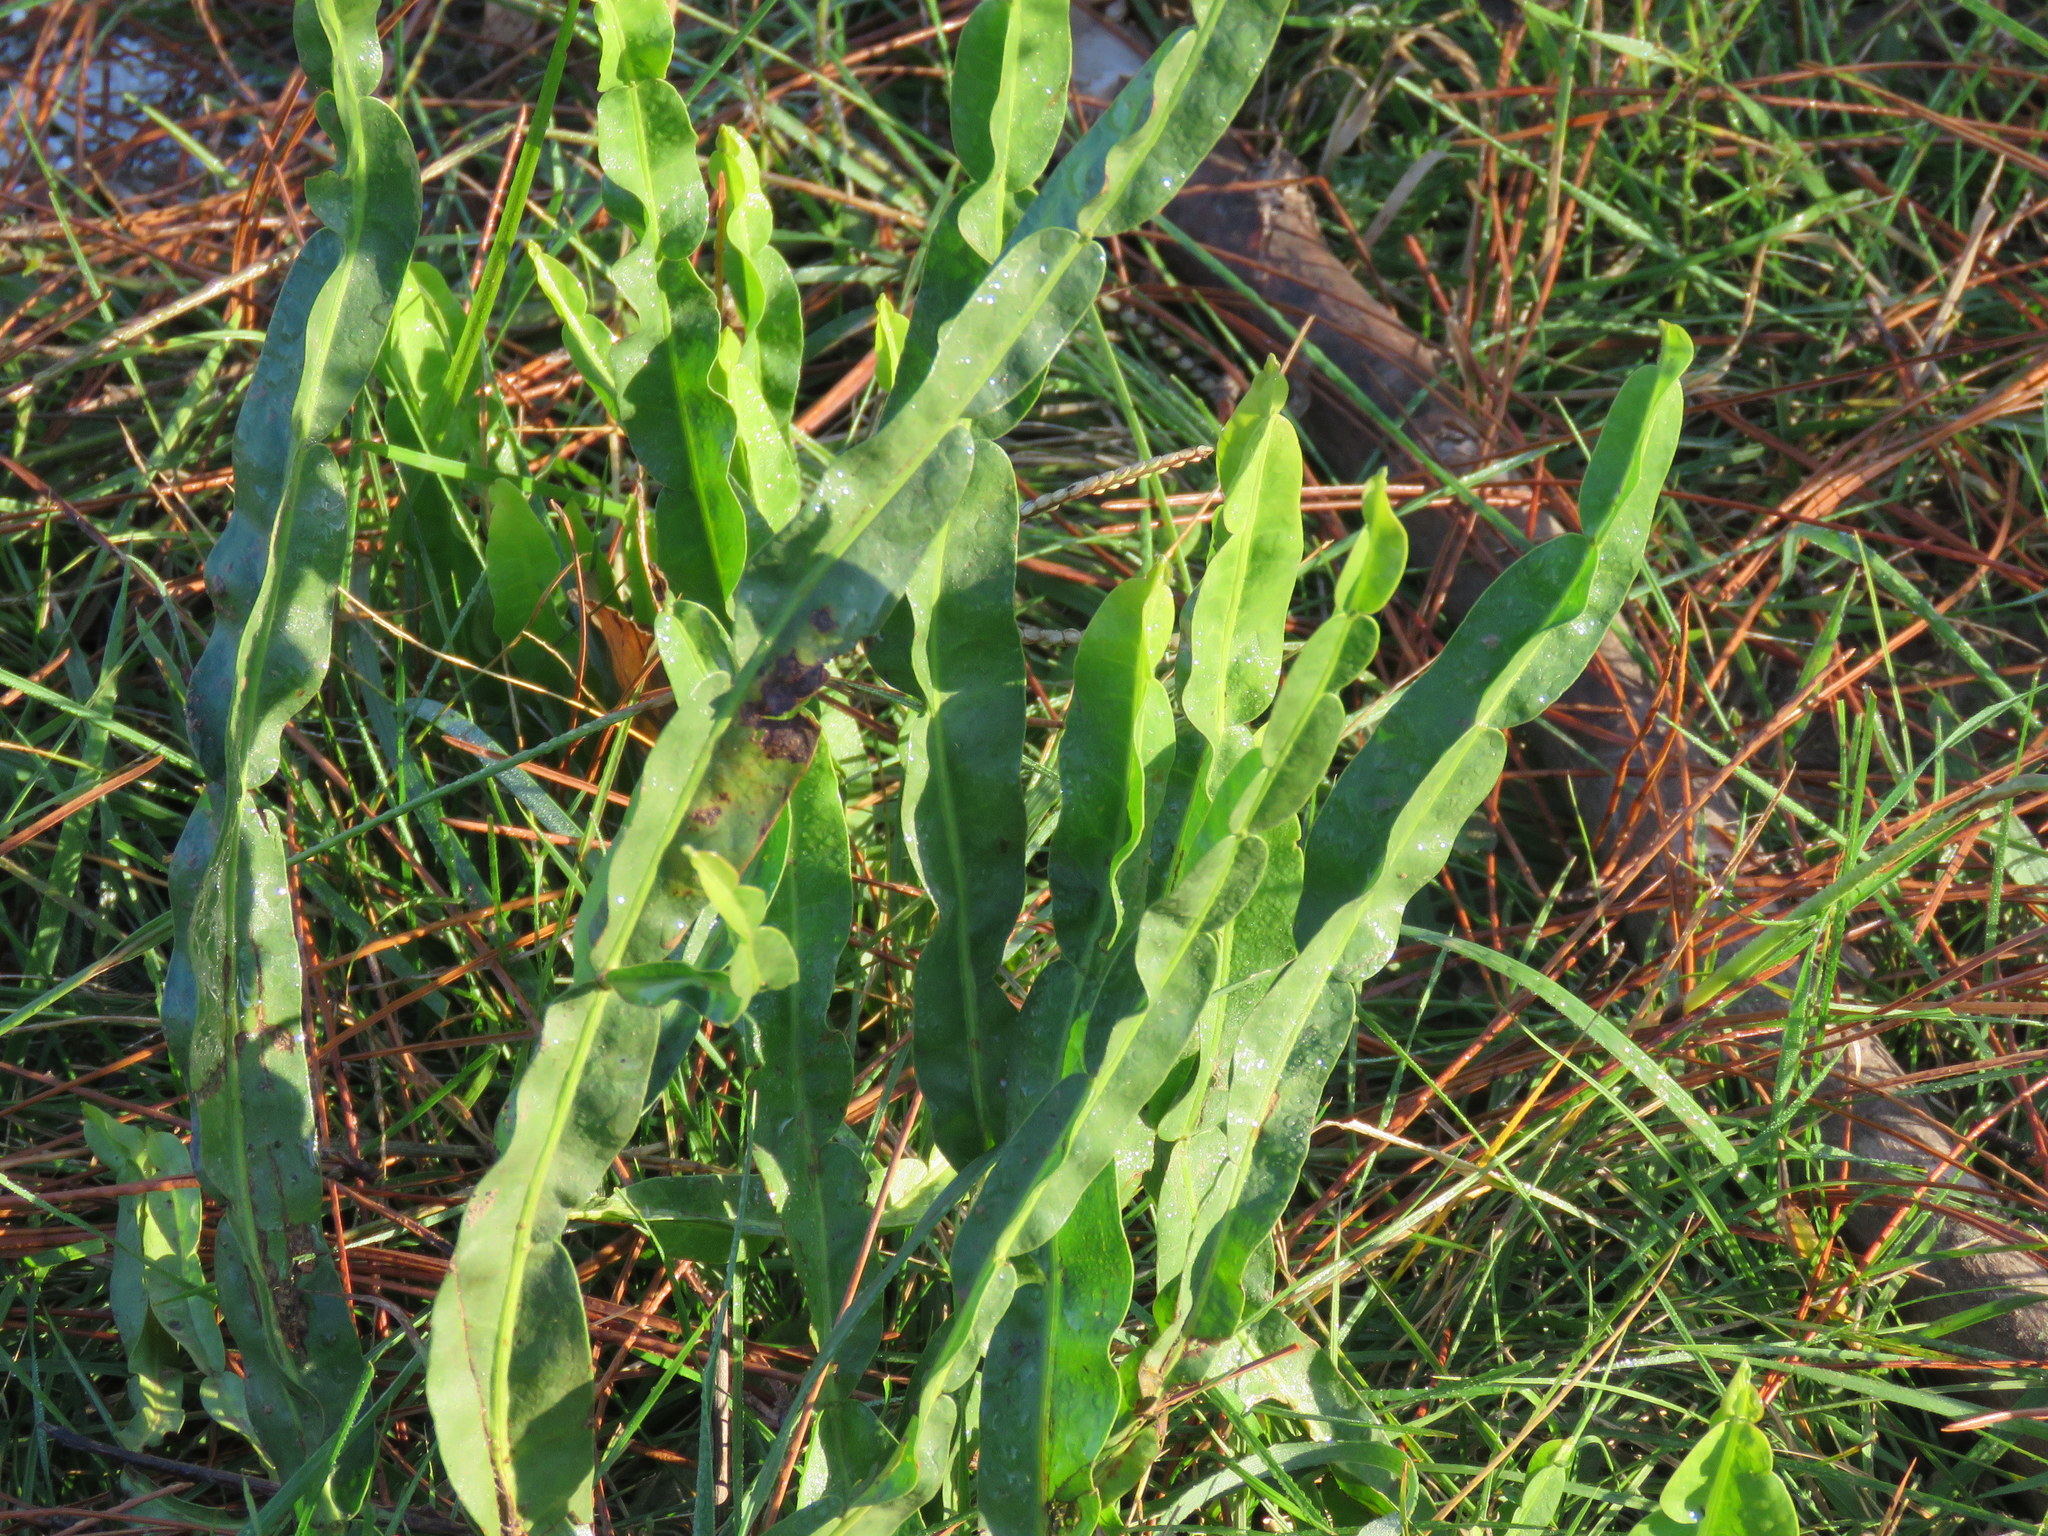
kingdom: Plantae
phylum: Tracheophyta
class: Magnoliopsida
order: Asterales
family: Asteraceae
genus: Baccharis
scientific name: Baccharis trimera
